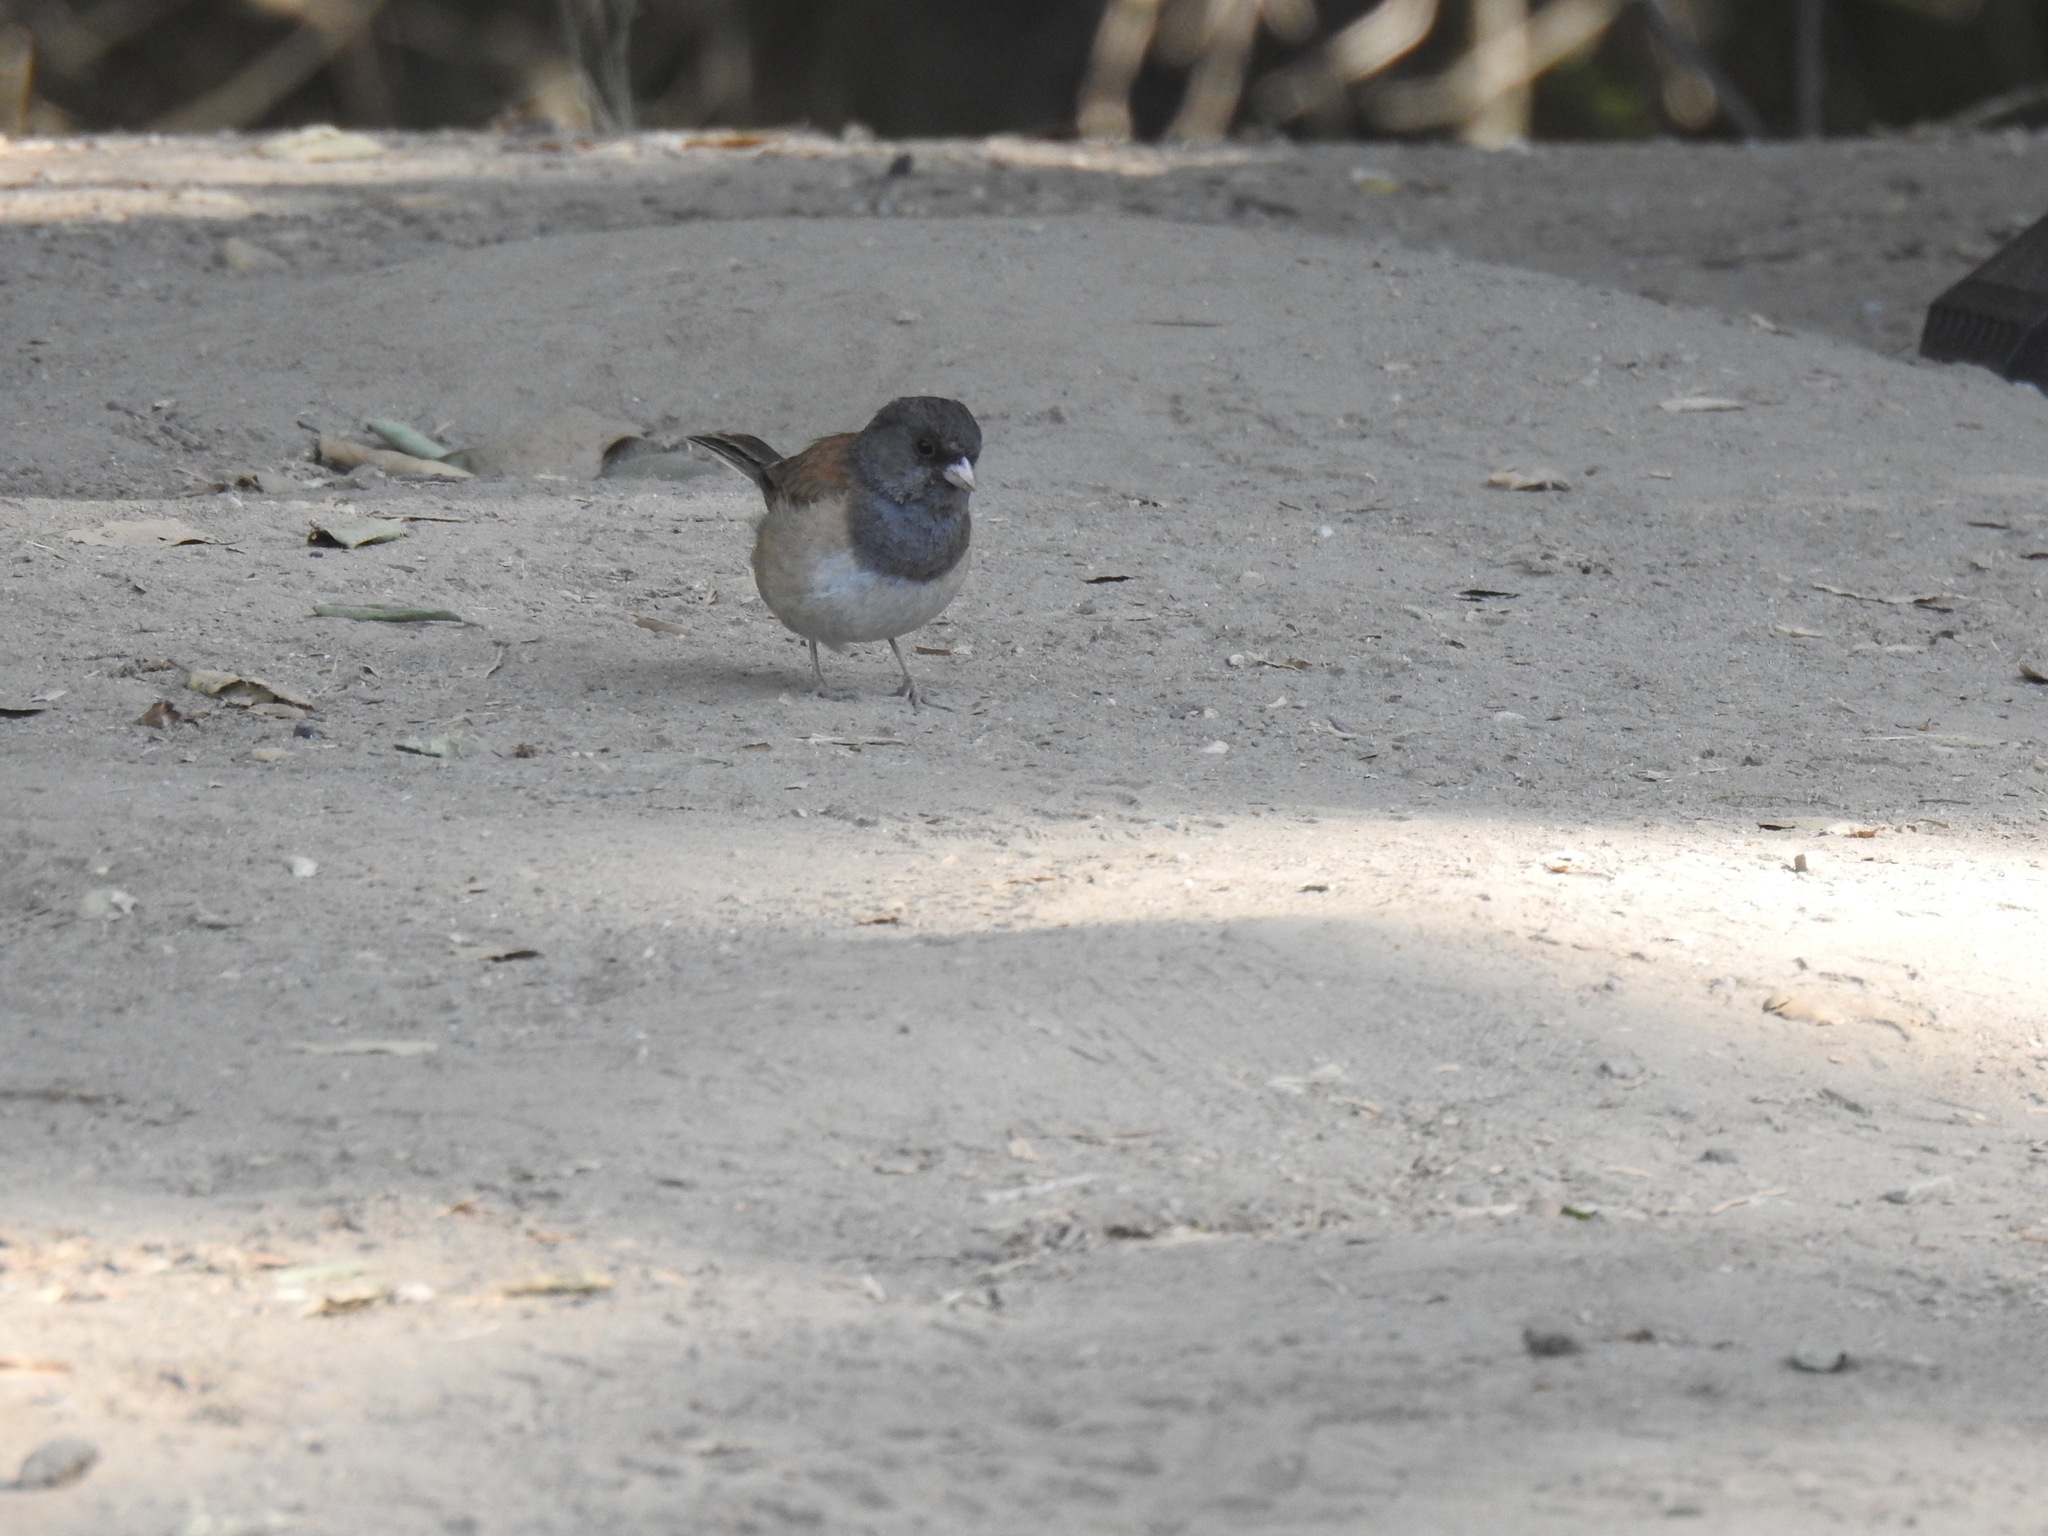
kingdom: Animalia
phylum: Chordata
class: Aves
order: Passeriformes
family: Passerellidae
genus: Junco
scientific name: Junco hyemalis
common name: Dark-eyed junco
